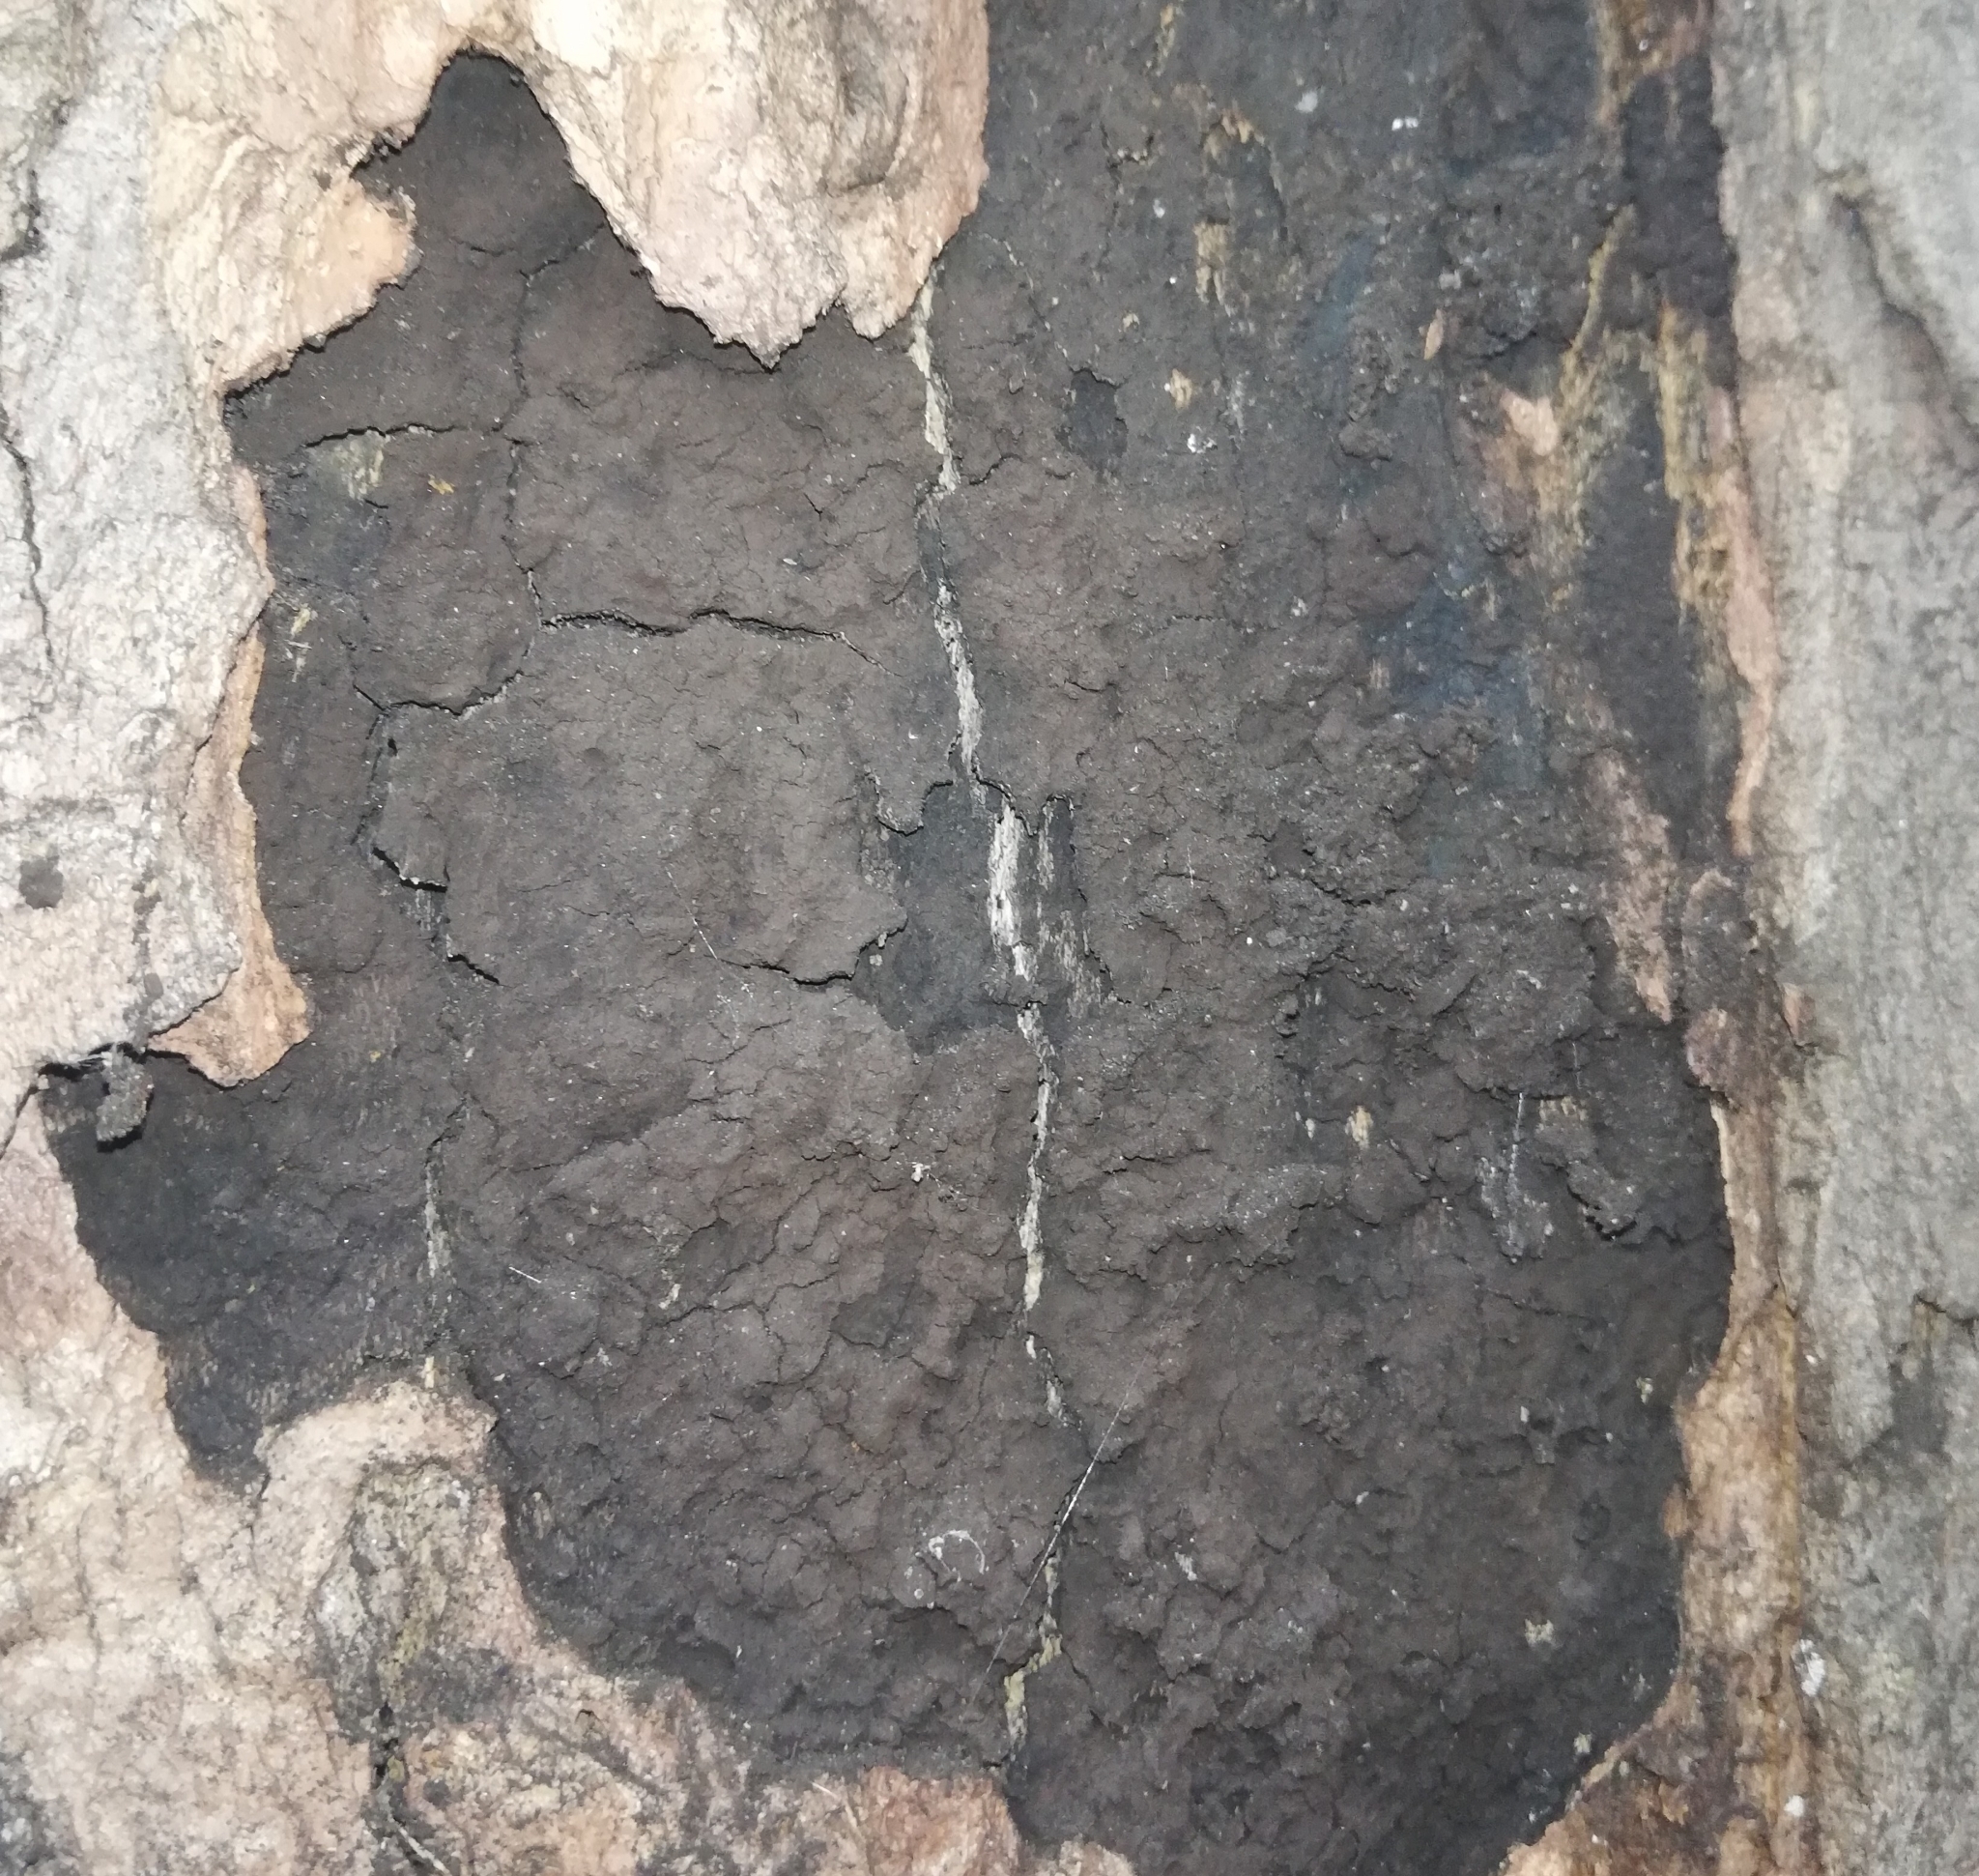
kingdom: Fungi
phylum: Ascomycota
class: Sordariomycetes
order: Xylariales
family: Xylariaceae
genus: Cryptostroma
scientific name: Cryptostroma corticale
